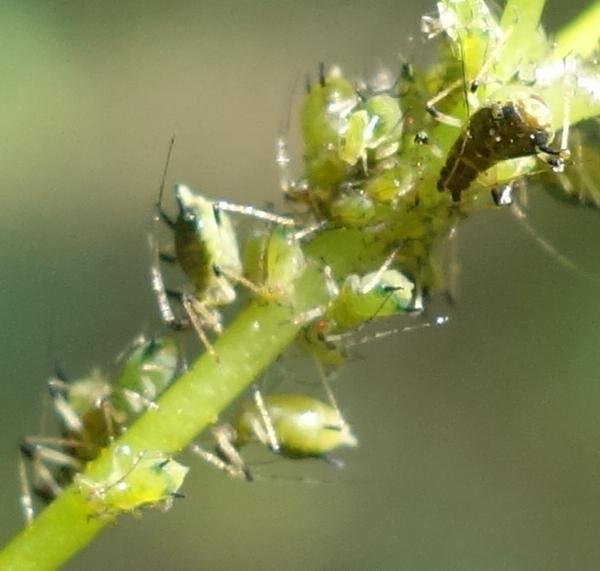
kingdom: Animalia
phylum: Arthropoda
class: Insecta
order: Hemiptera
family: Aphididae
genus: Impatientinum
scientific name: Impatientinum asiaticum
